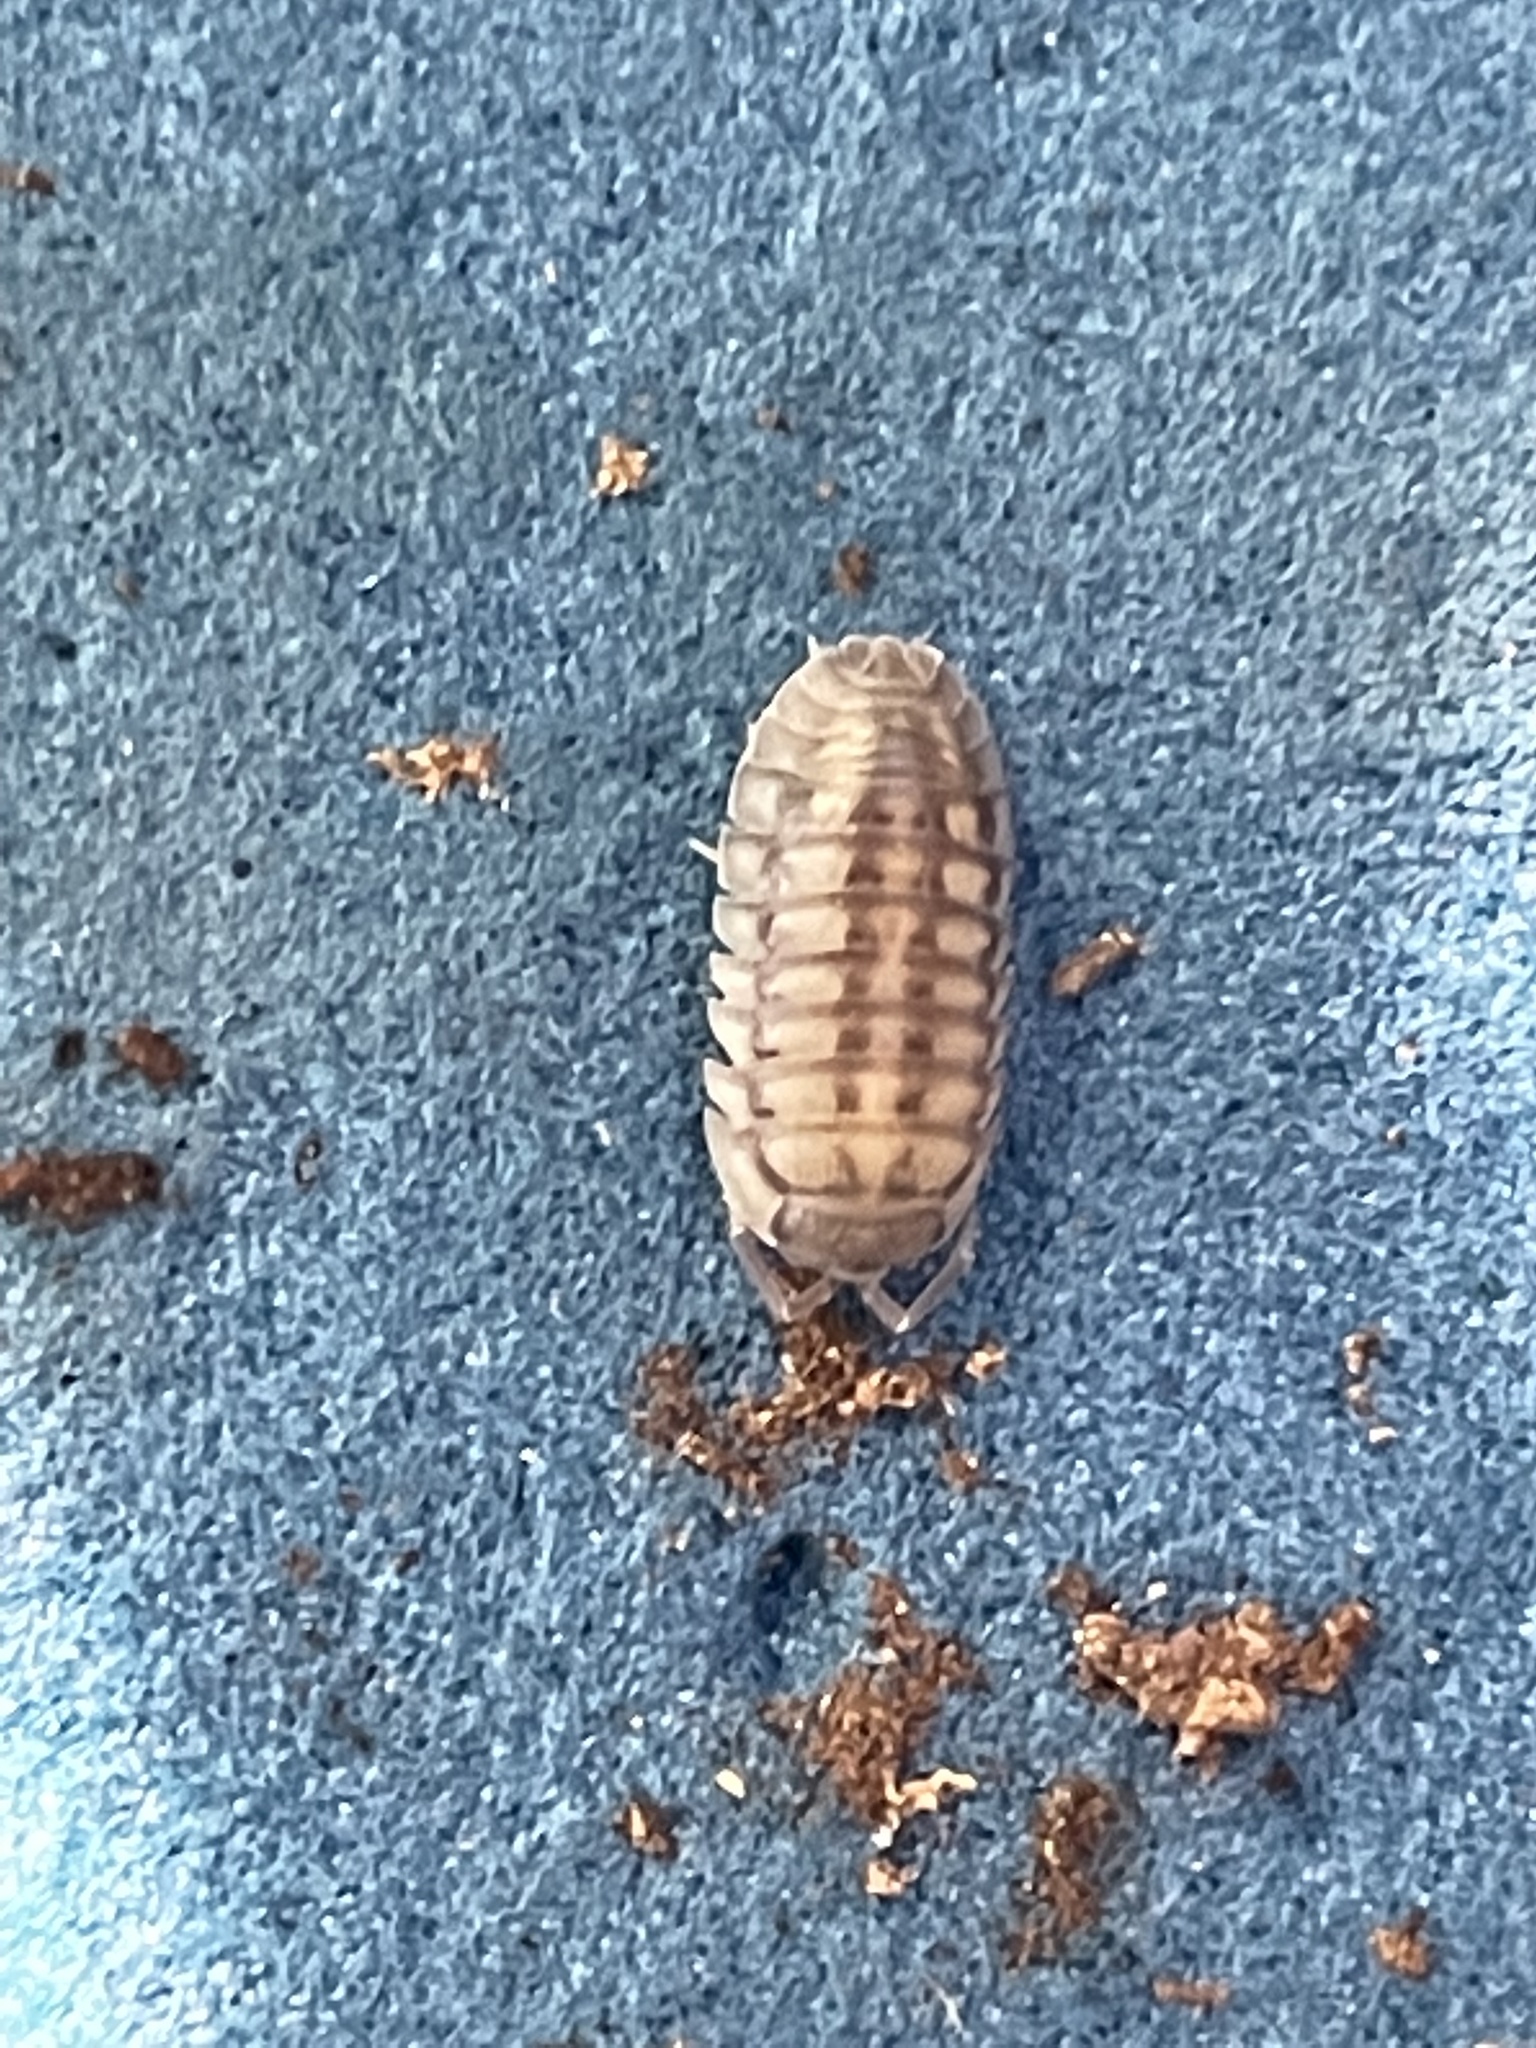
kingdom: Animalia
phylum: Arthropoda
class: Malacostraca
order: Isopoda
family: Armadillidiidae
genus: Armadillidium
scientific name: Armadillidium nasatum
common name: Isopod
